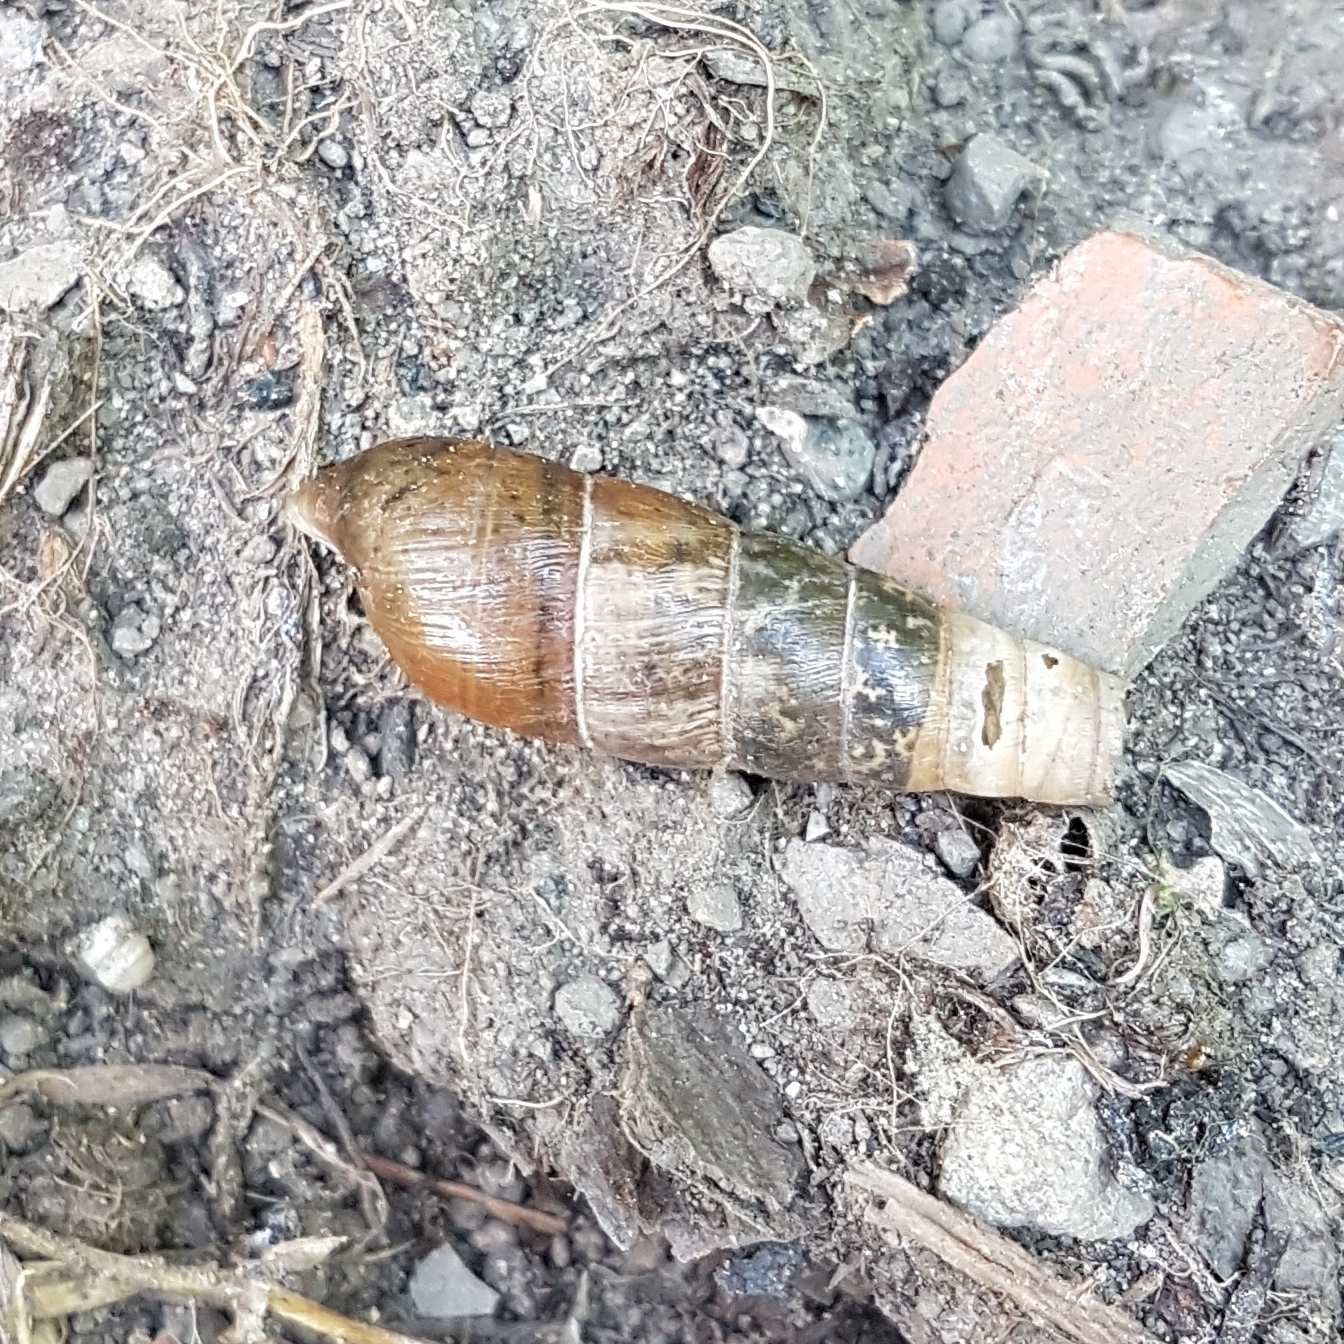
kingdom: Animalia
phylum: Mollusca
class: Gastropoda
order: Stylommatophora
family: Achatinidae
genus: Rumina
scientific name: Rumina decollata
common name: Decollate snail
